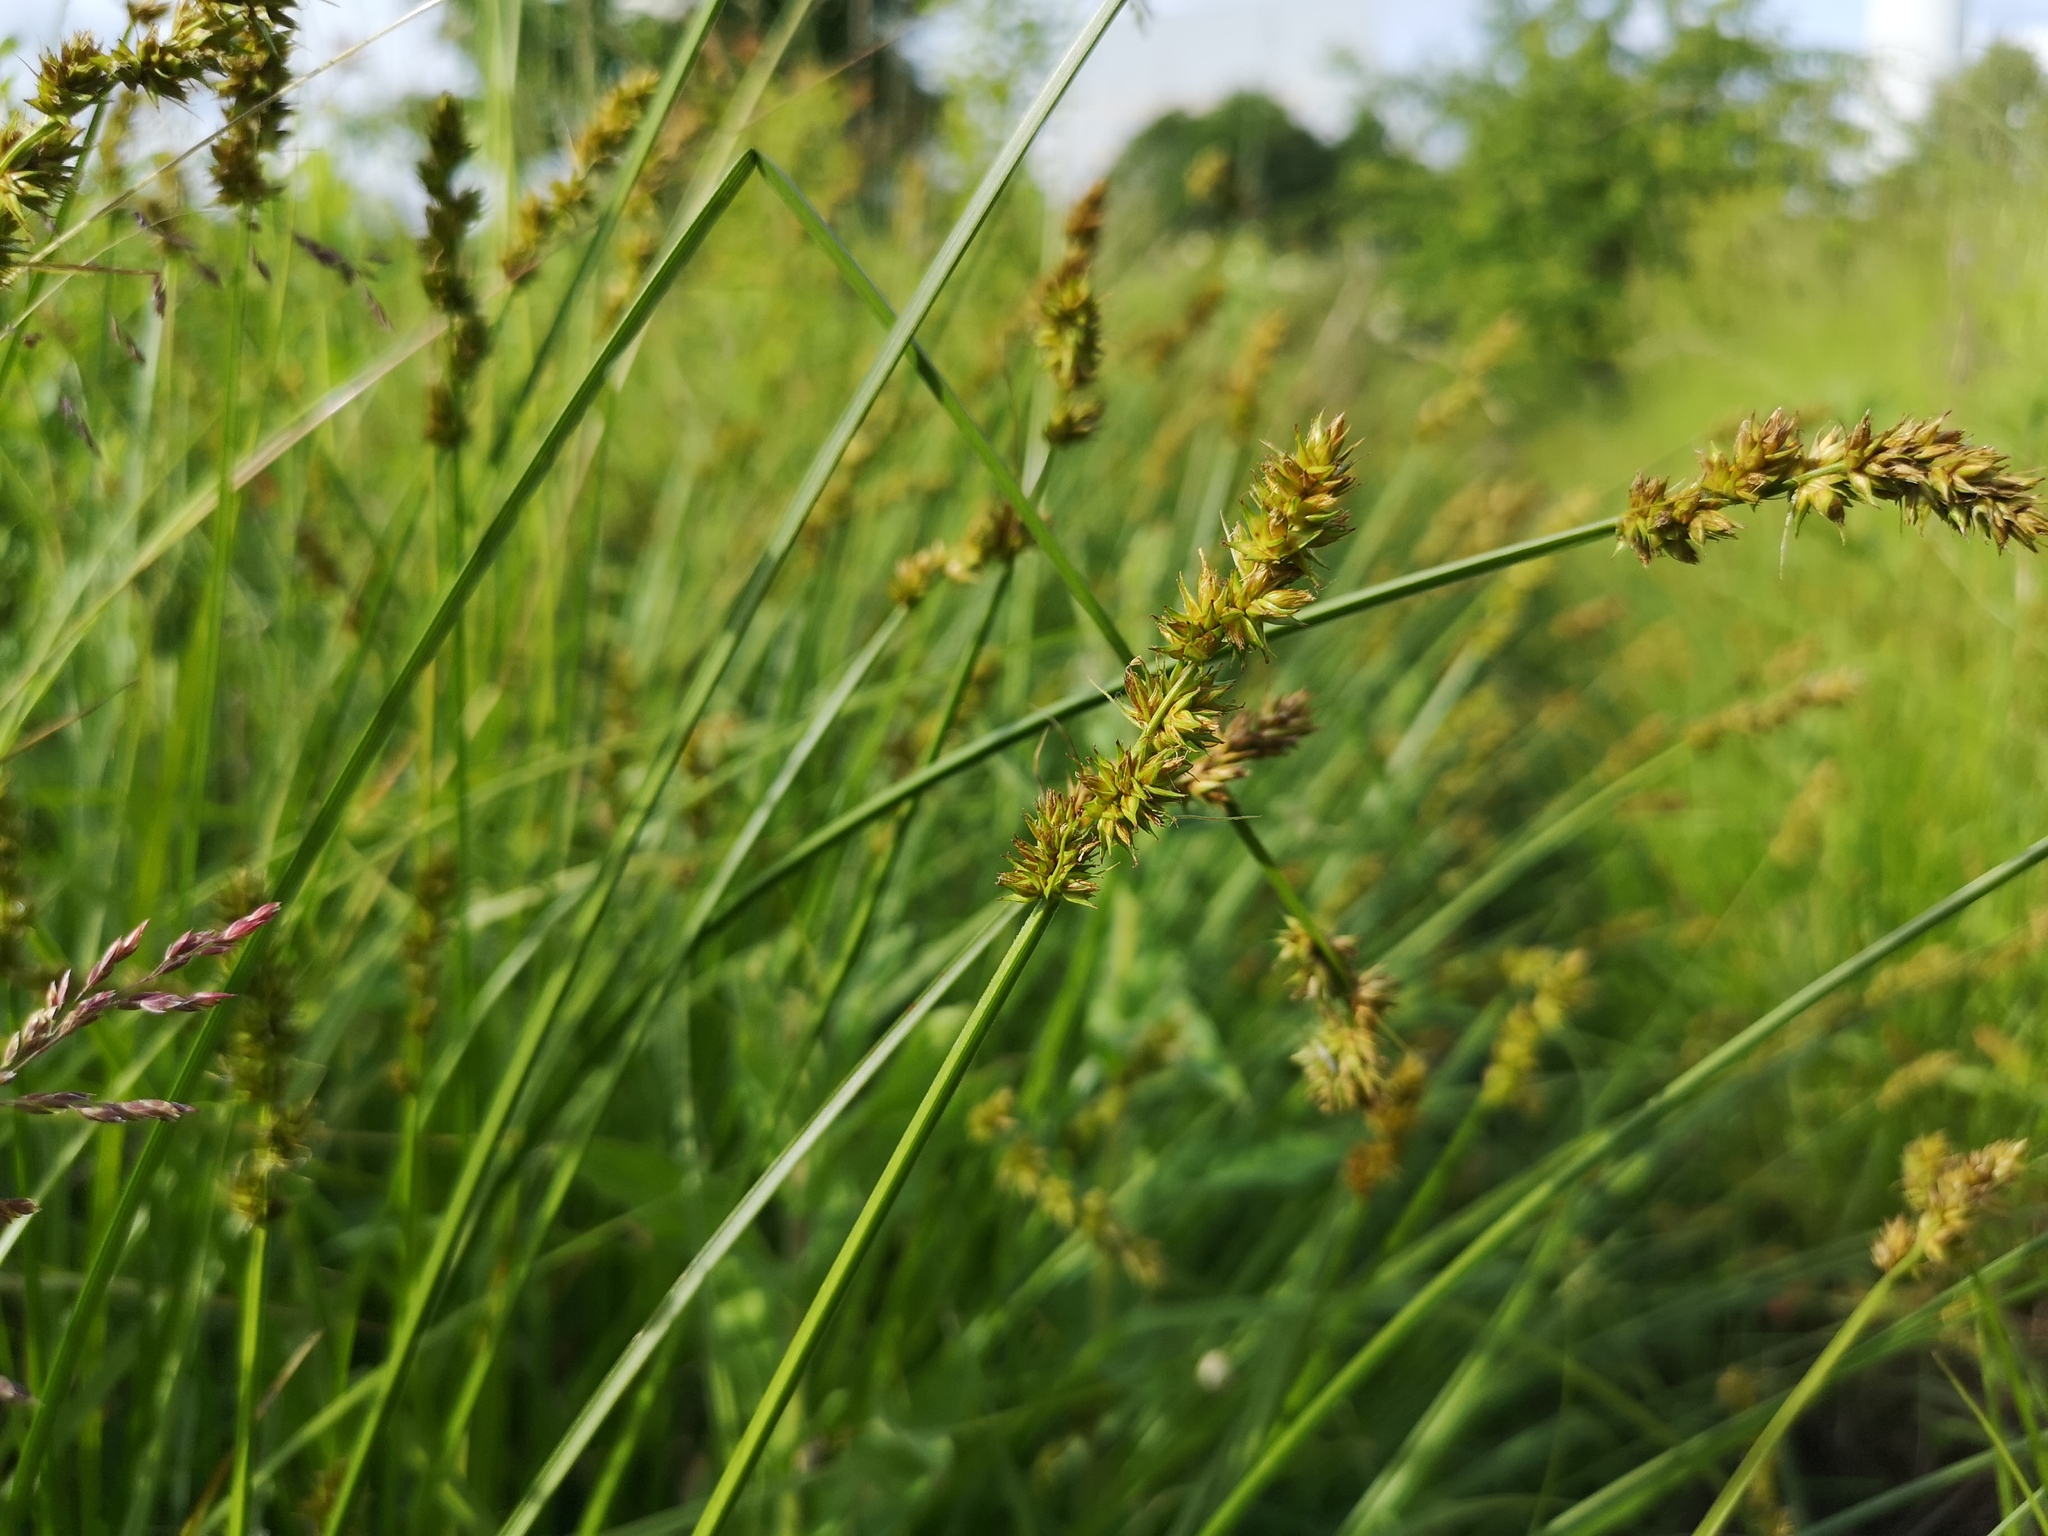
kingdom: Plantae
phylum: Tracheophyta
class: Liliopsida
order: Poales
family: Cyperaceae
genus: Carex
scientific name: Carex otrubae
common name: False fox-sedge
